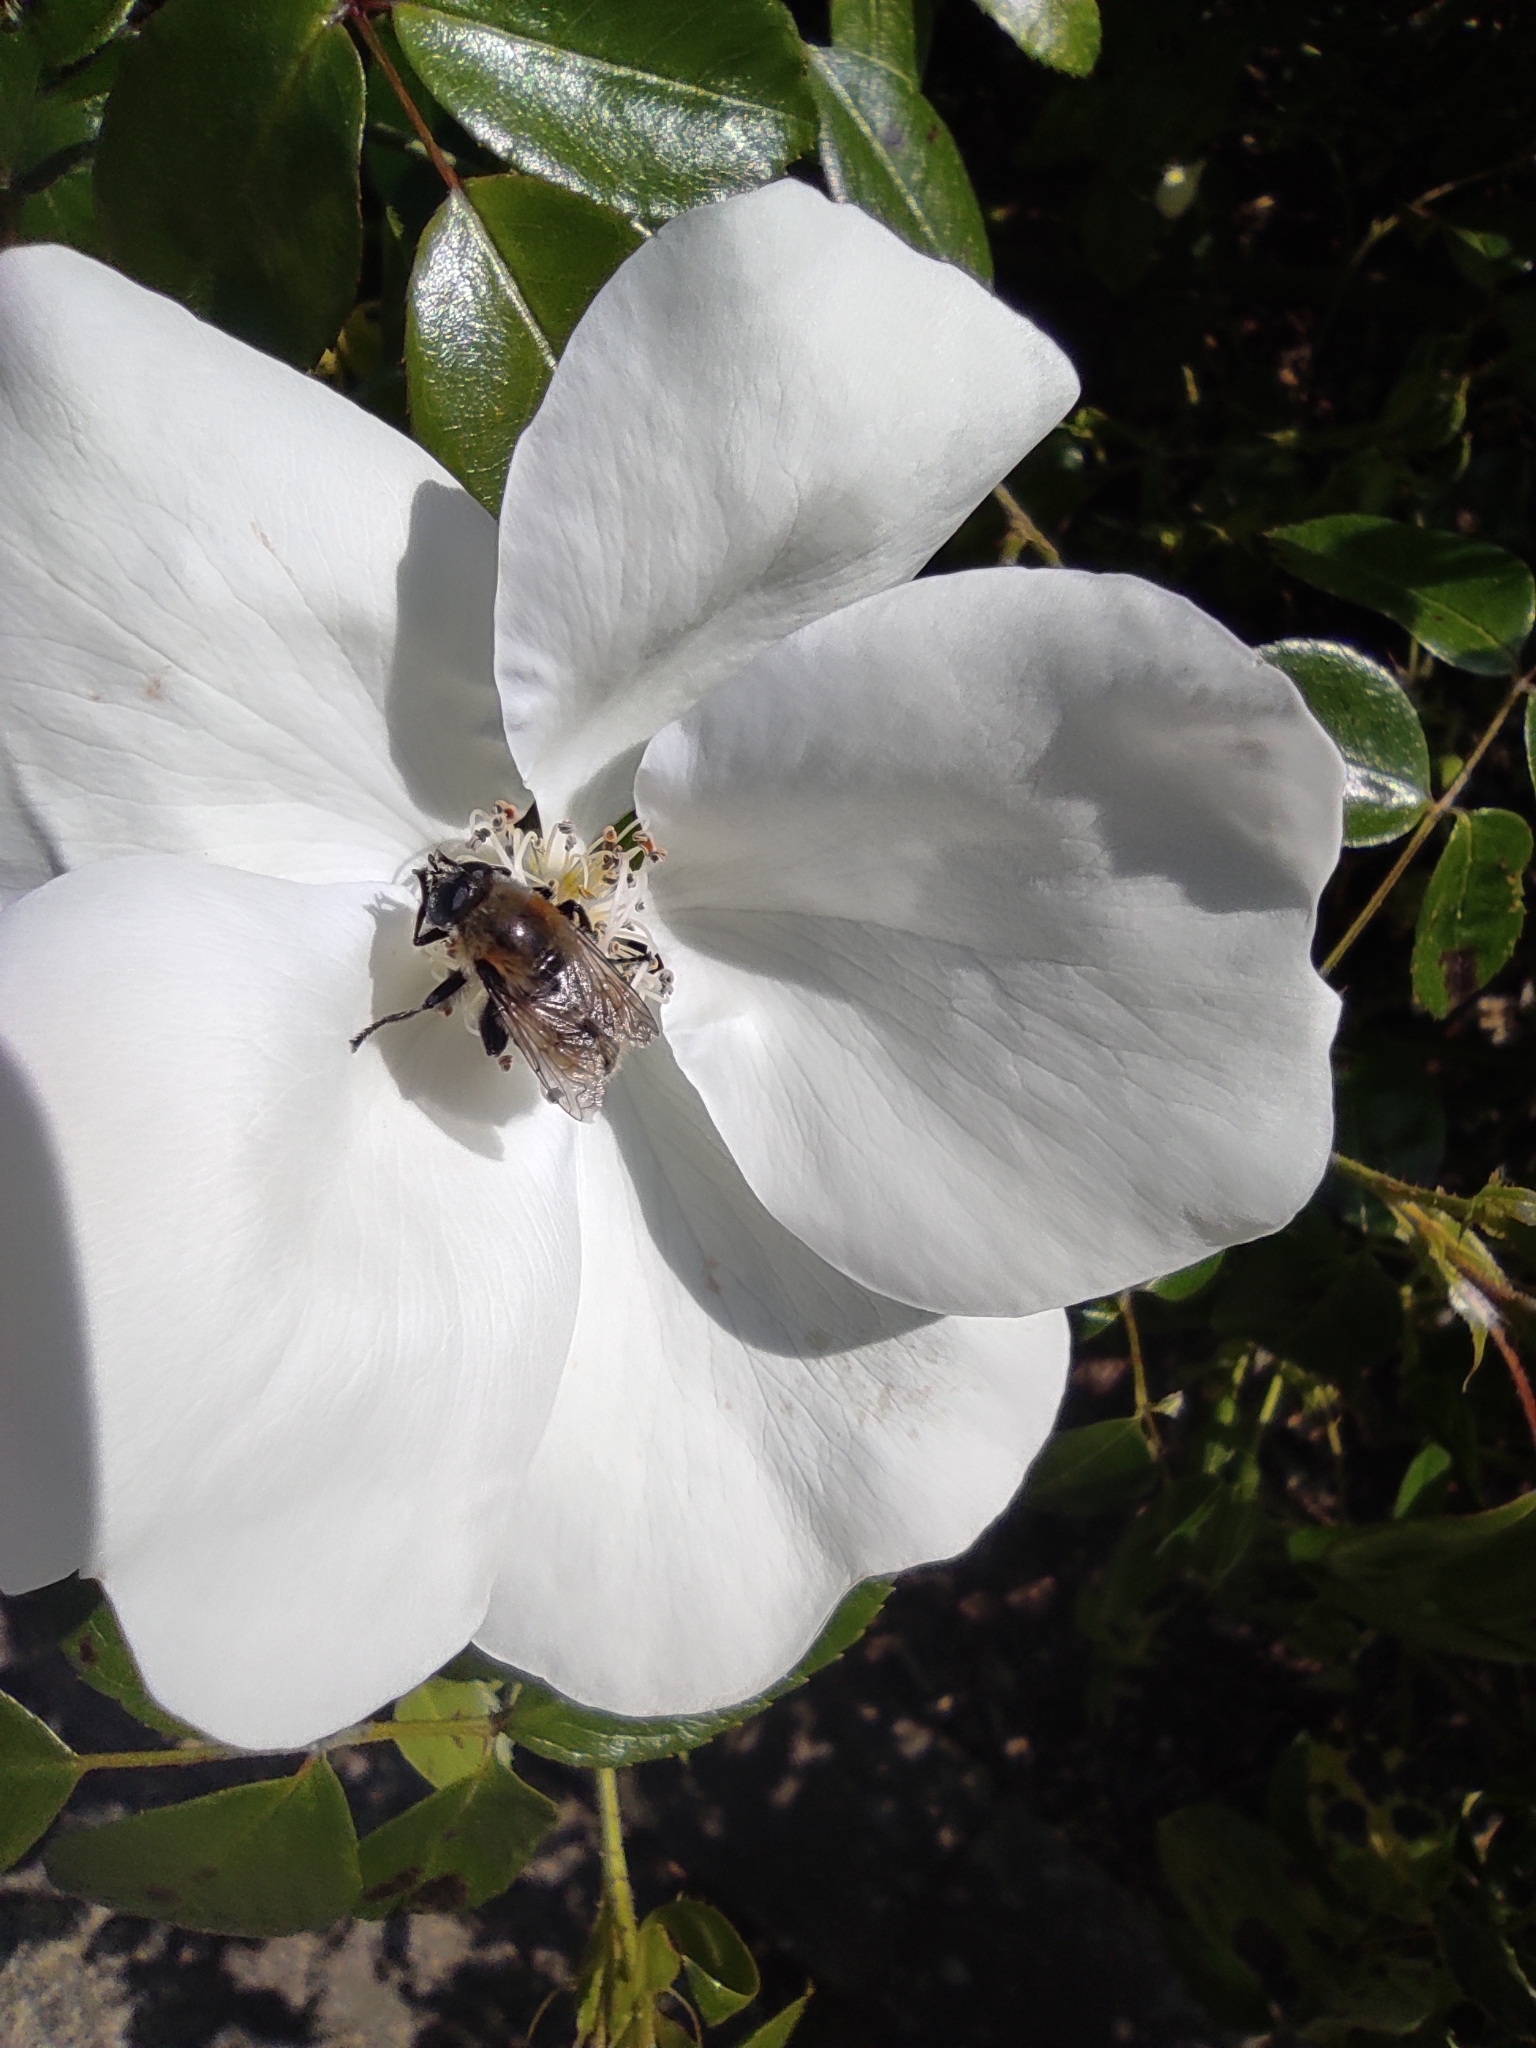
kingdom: Animalia
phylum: Arthropoda
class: Insecta
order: Diptera
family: Syrphidae
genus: Merodon
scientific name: Merodon equestris
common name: Greater bulb-fly
